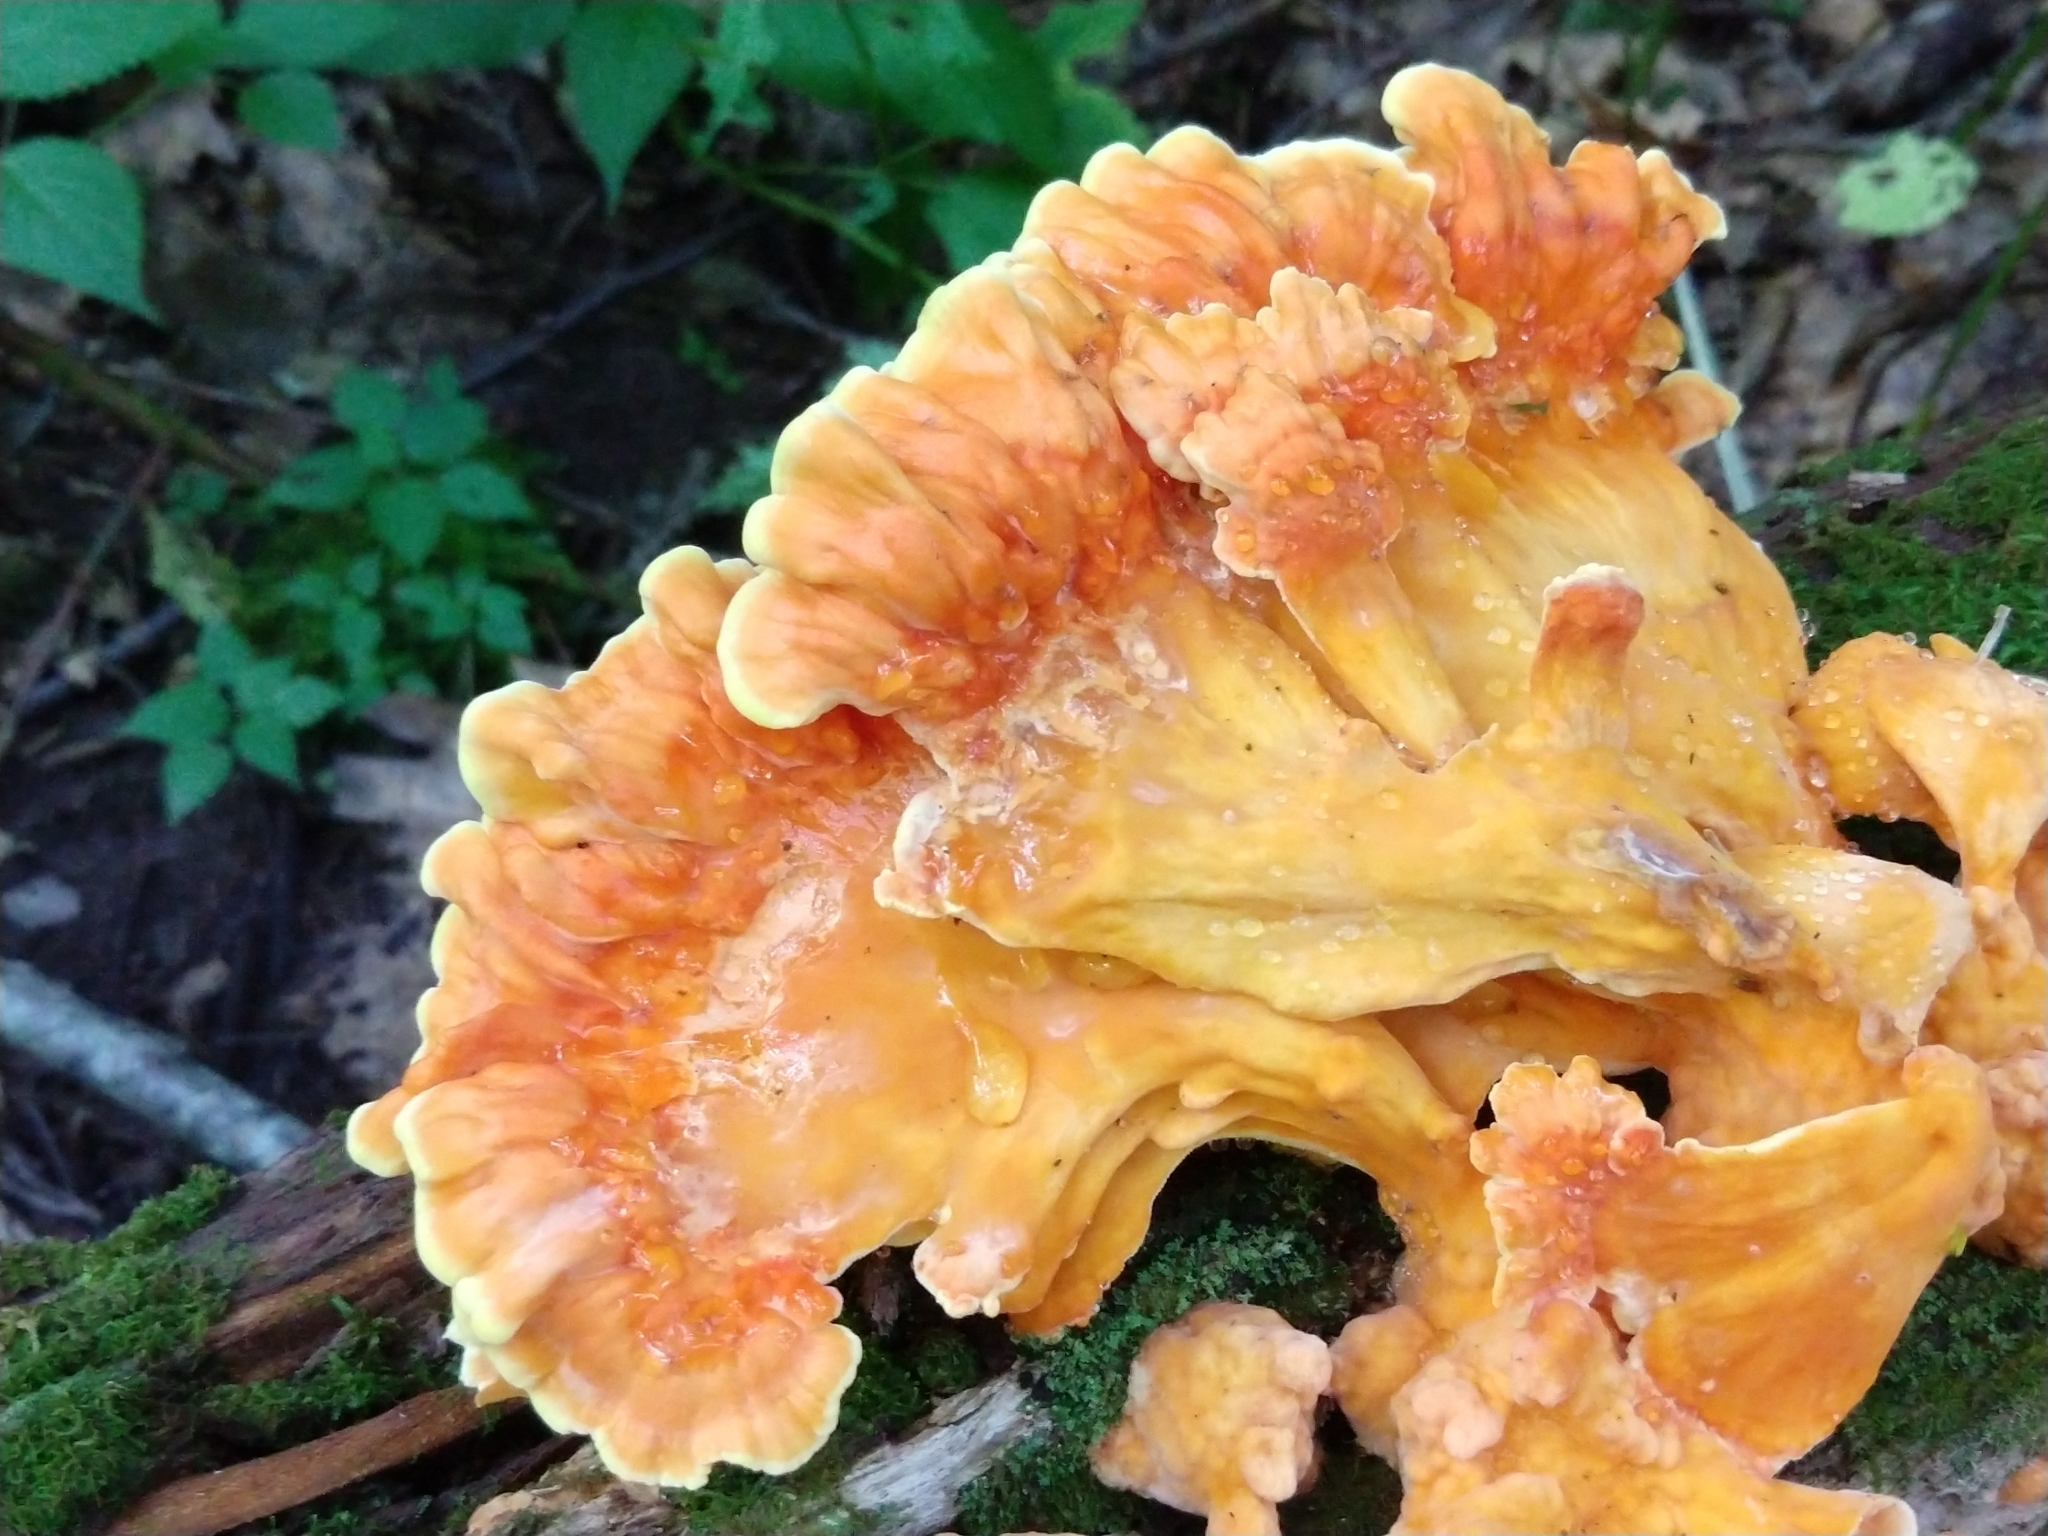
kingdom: Fungi
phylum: Basidiomycota
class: Agaricomycetes
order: Polyporales
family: Laetiporaceae
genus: Laetiporus
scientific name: Laetiporus sulphureus
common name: Chicken of the woods
